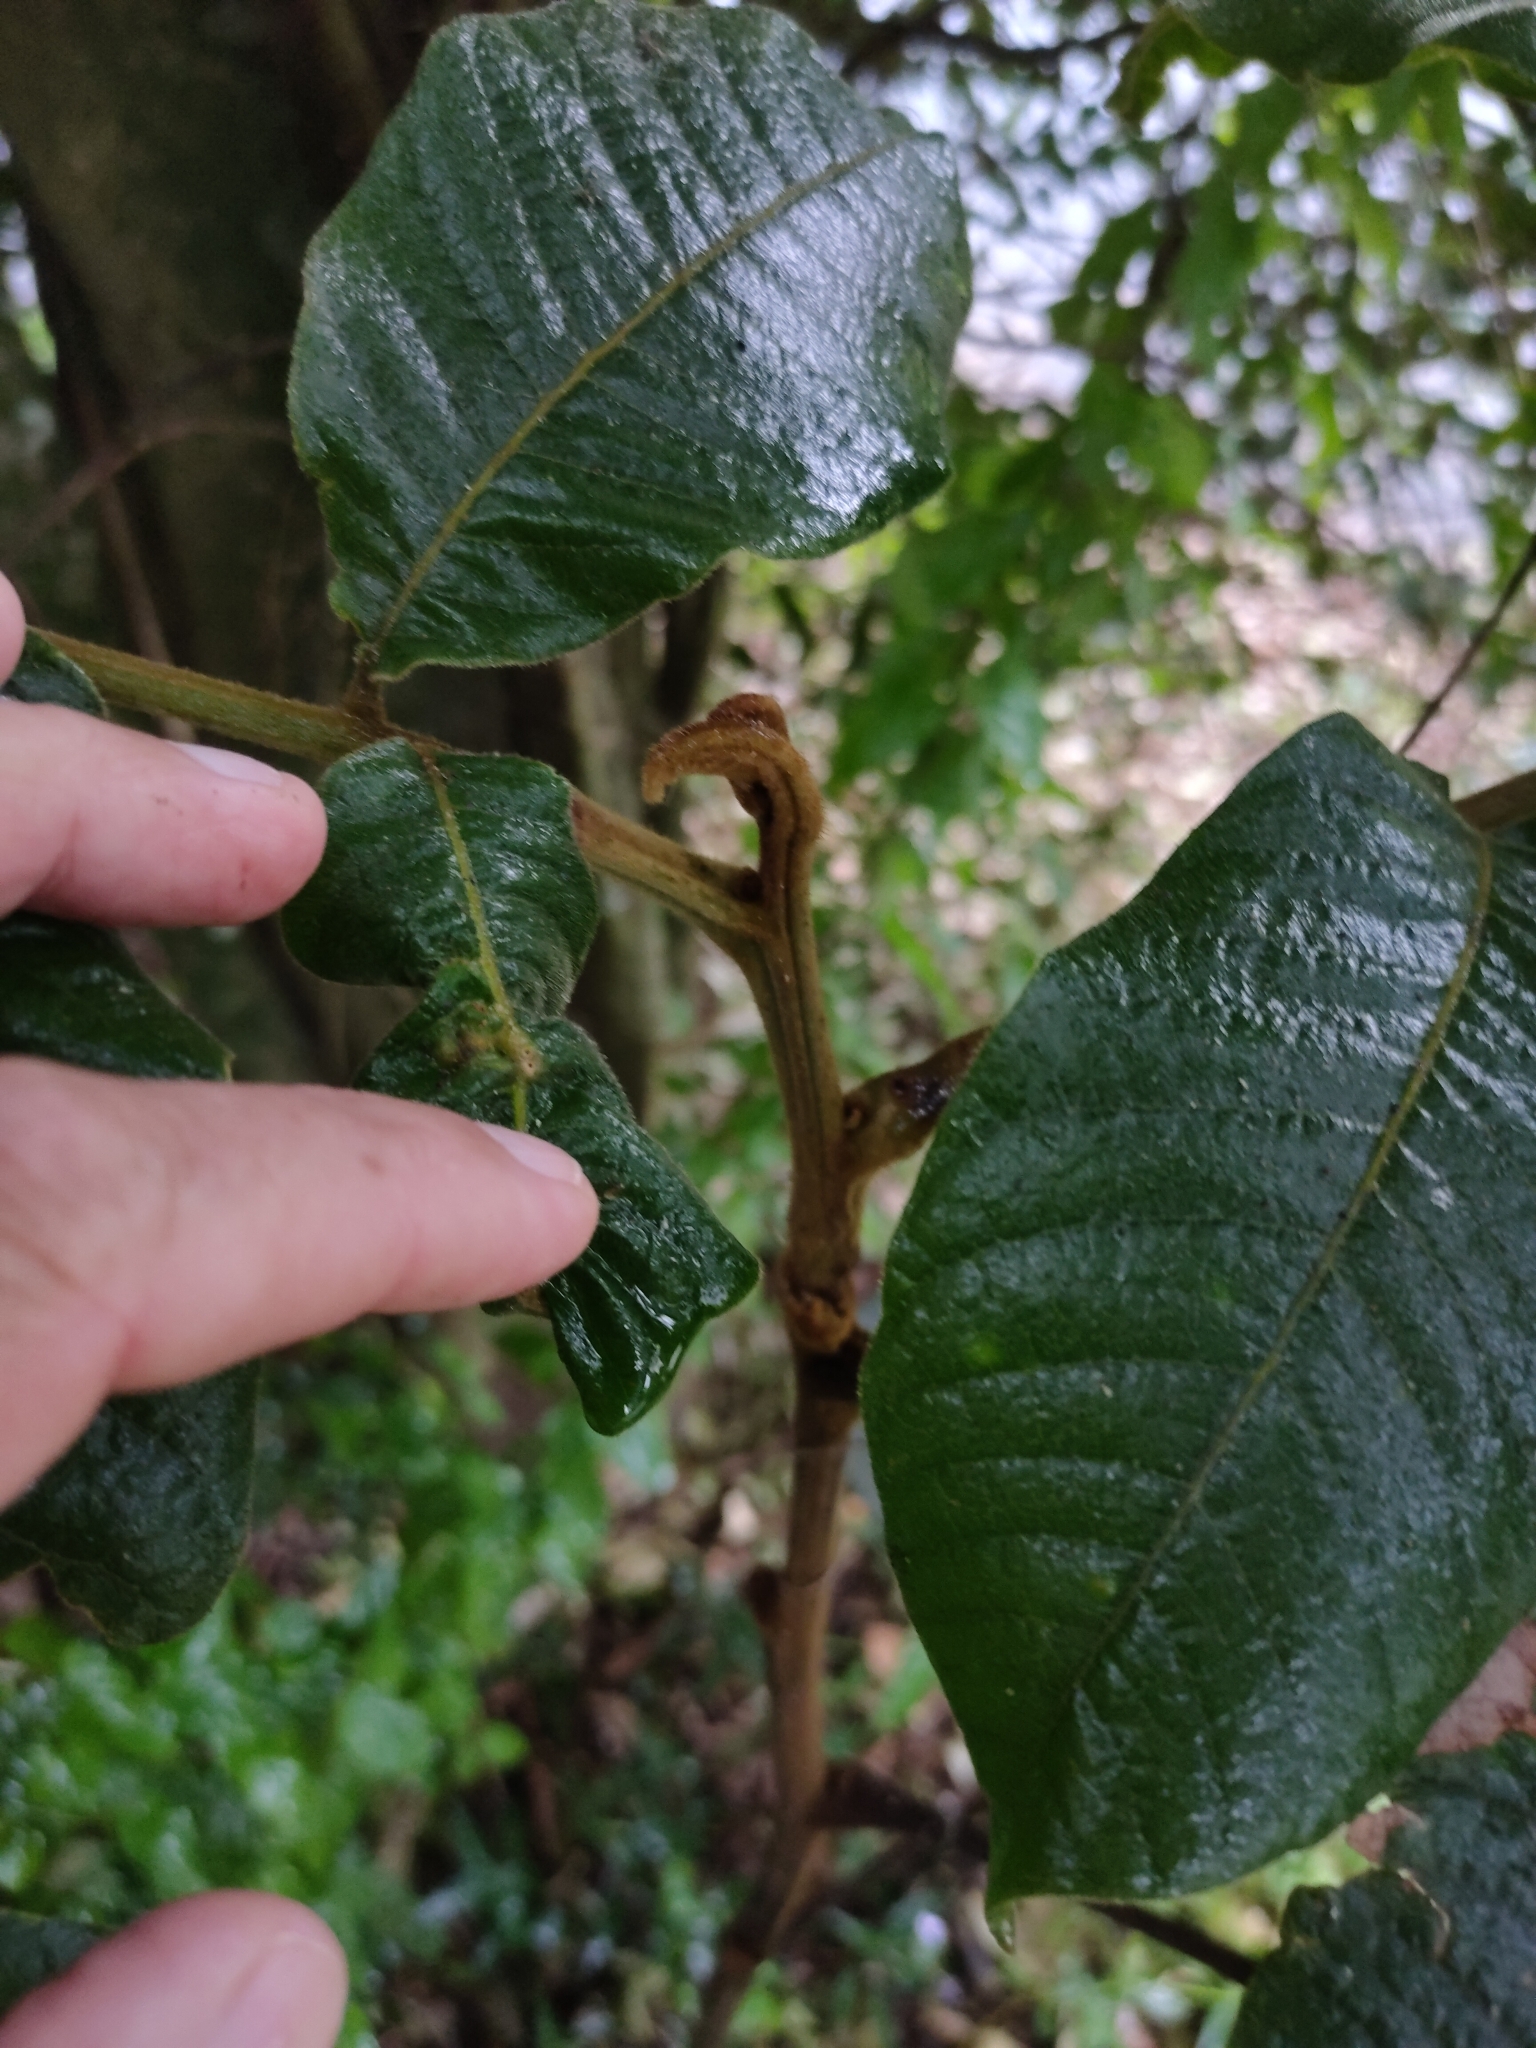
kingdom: Plantae
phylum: Tracheophyta
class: Magnoliopsida
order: Sapindales
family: Sapindaceae
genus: Diploglottis
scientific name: Diploglottis australis
